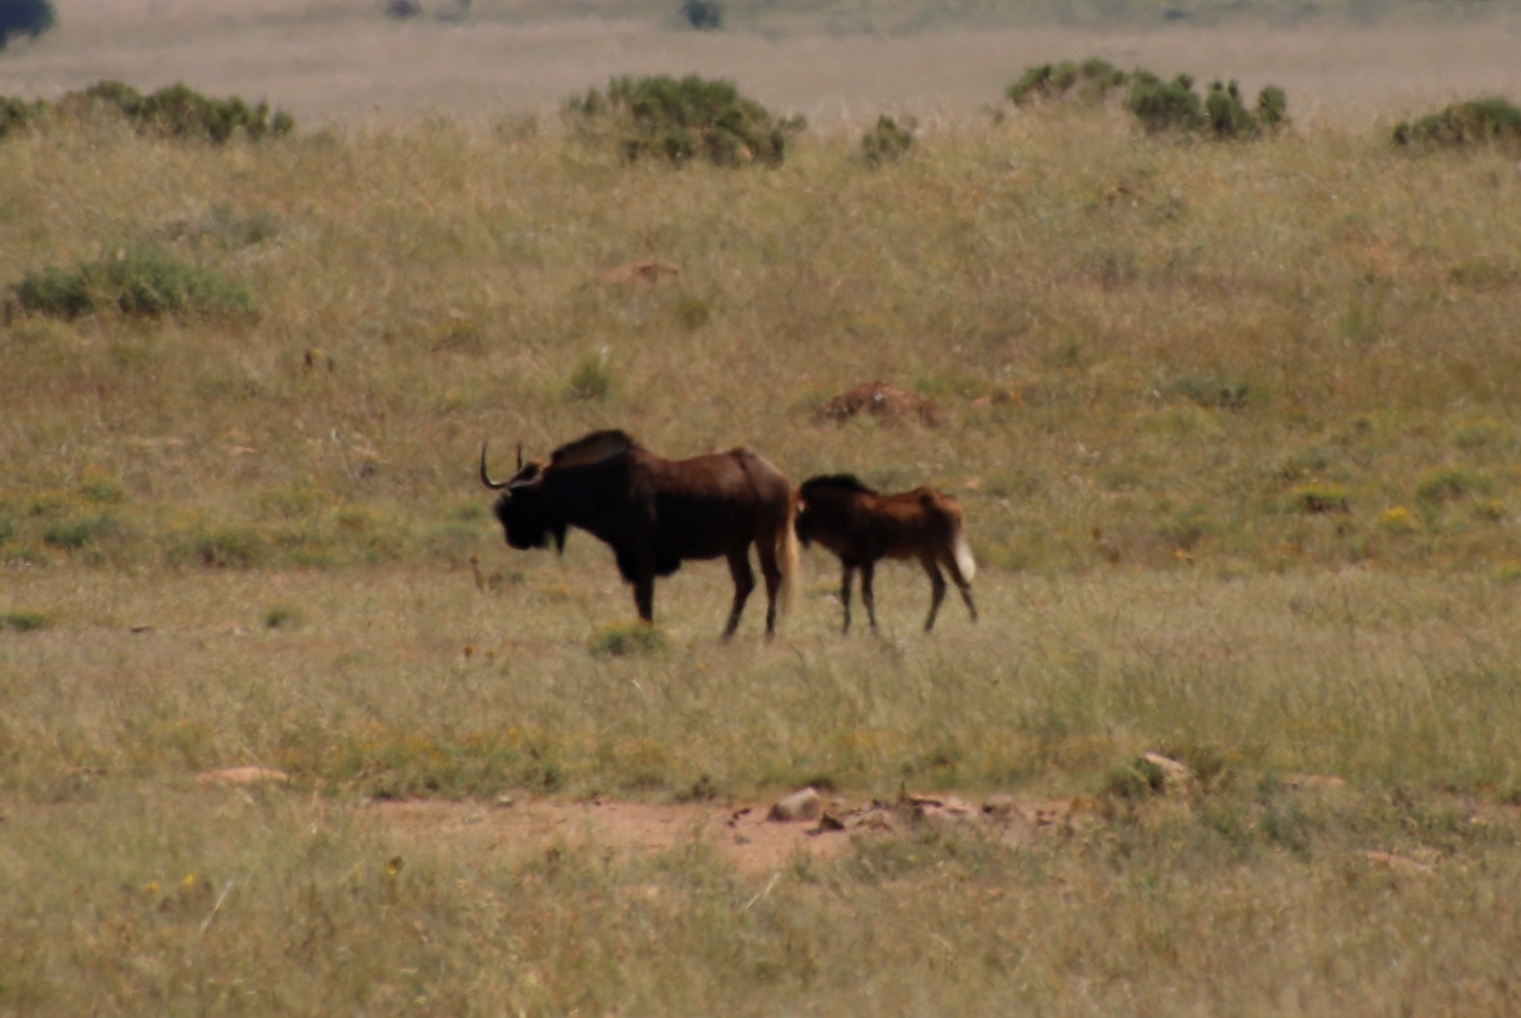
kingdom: Animalia
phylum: Chordata
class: Mammalia
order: Artiodactyla
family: Bovidae
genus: Connochaetes
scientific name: Connochaetes gnou
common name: Black wildebeest
